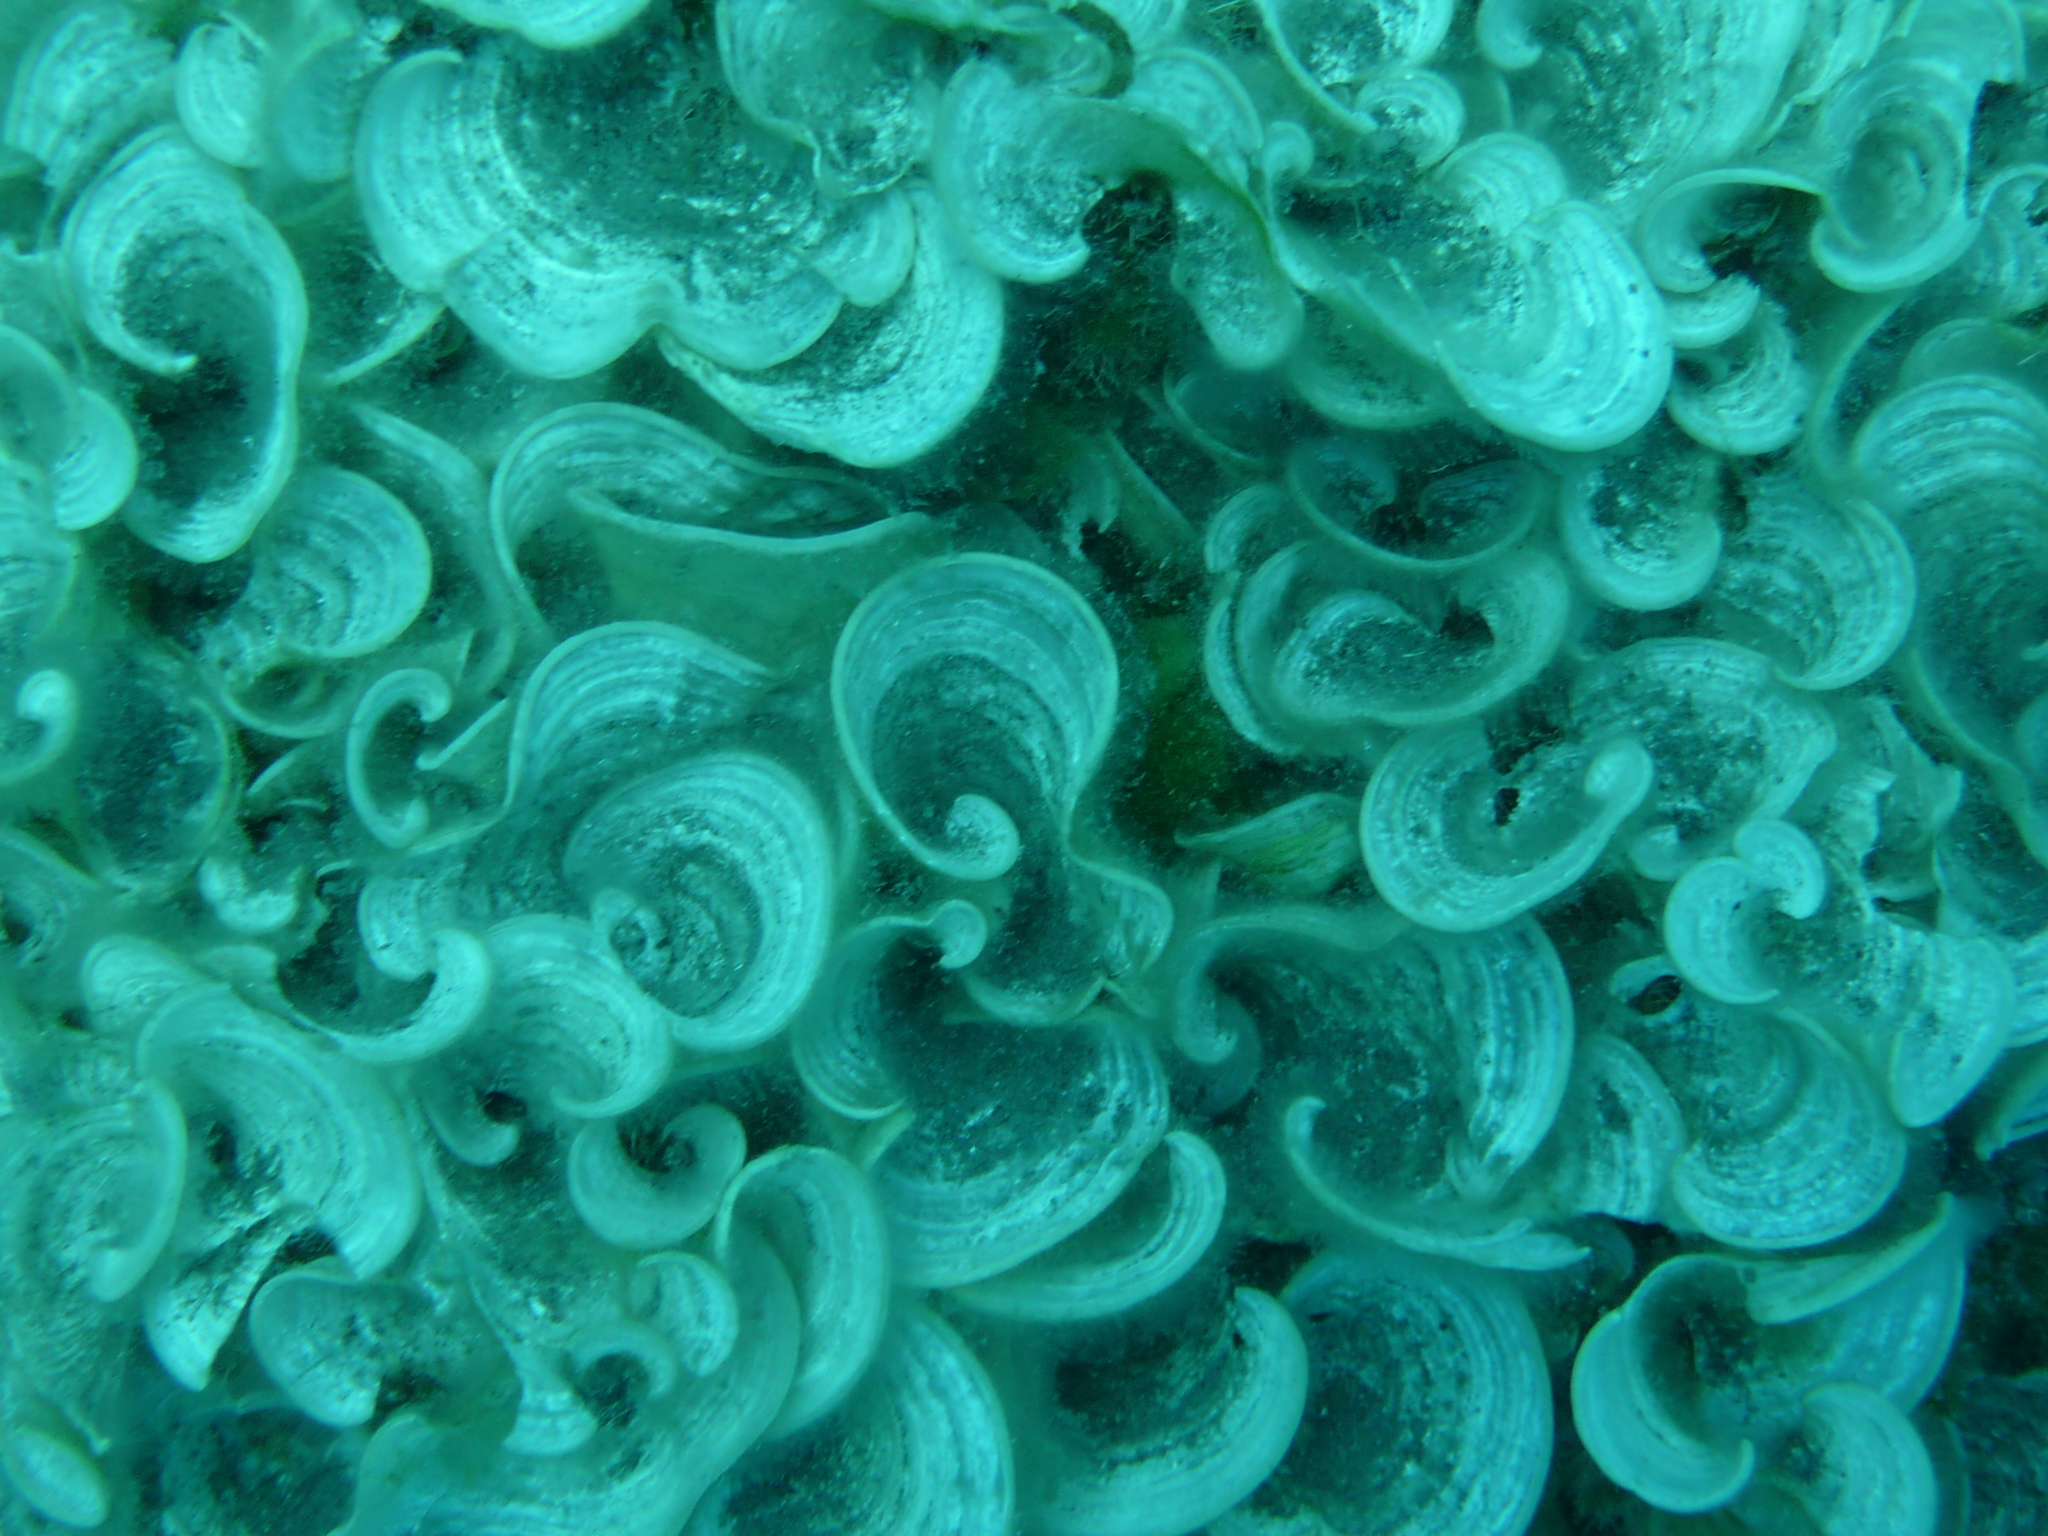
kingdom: Chromista
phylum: Ochrophyta
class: Phaeophyceae
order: Dictyotales
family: Dictyotaceae
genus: Padina
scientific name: Padina pavonica
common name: Turkey feather alga
